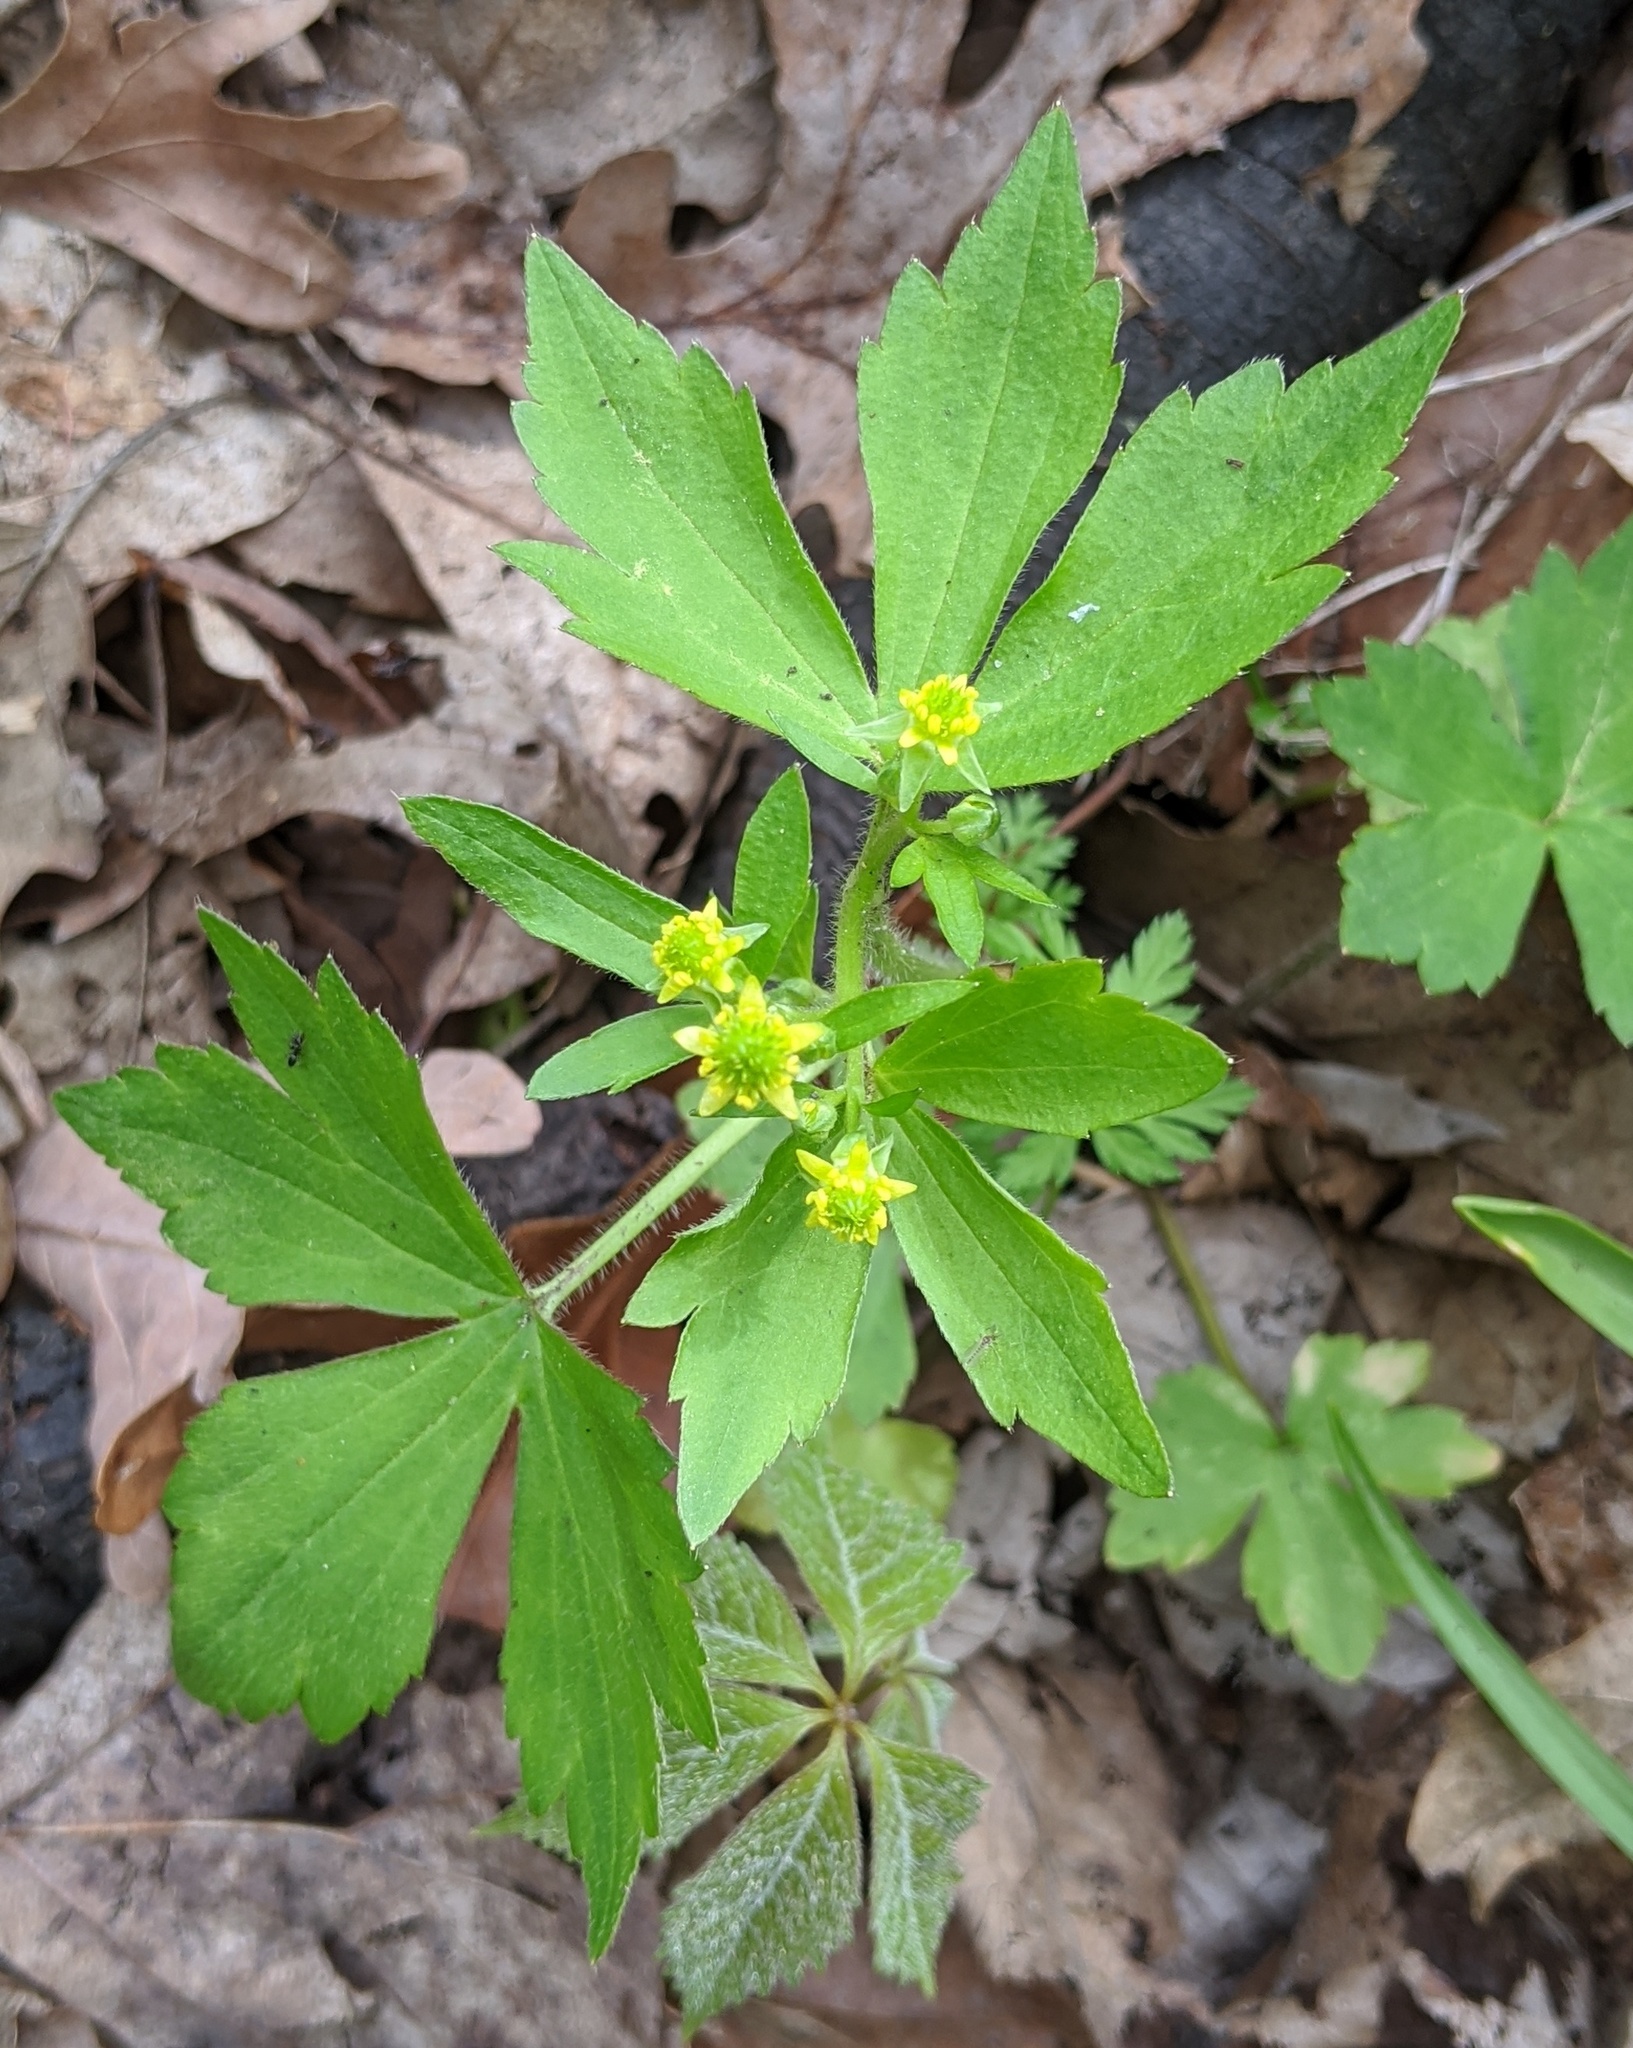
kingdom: Plantae
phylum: Tracheophyta
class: Magnoliopsida
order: Ranunculales
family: Ranunculaceae
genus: Ranunculus
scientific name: Ranunculus recurvatus
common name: Blisterwort
